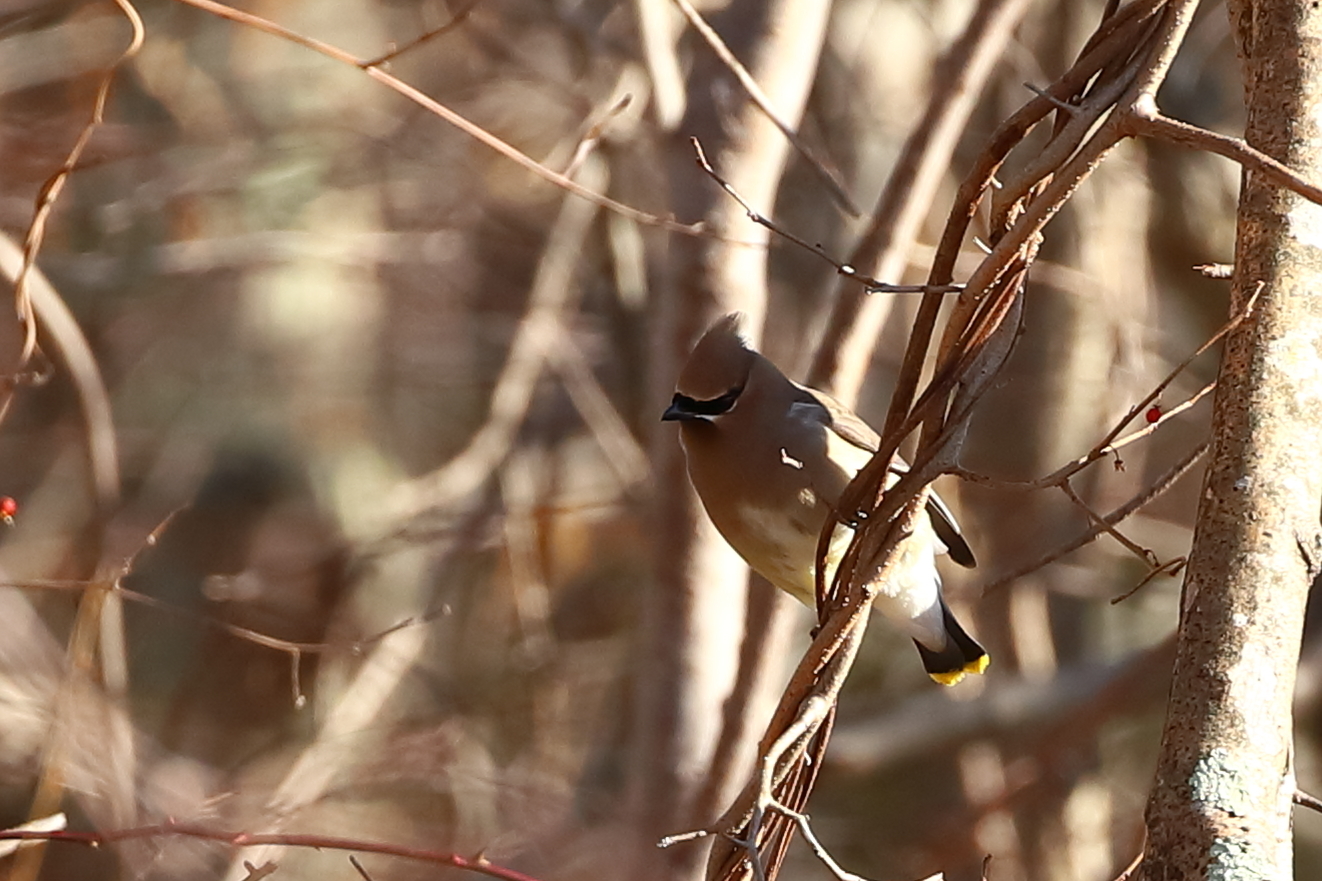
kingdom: Animalia
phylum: Chordata
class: Aves
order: Passeriformes
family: Bombycillidae
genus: Bombycilla
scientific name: Bombycilla cedrorum
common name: Cedar waxwing
